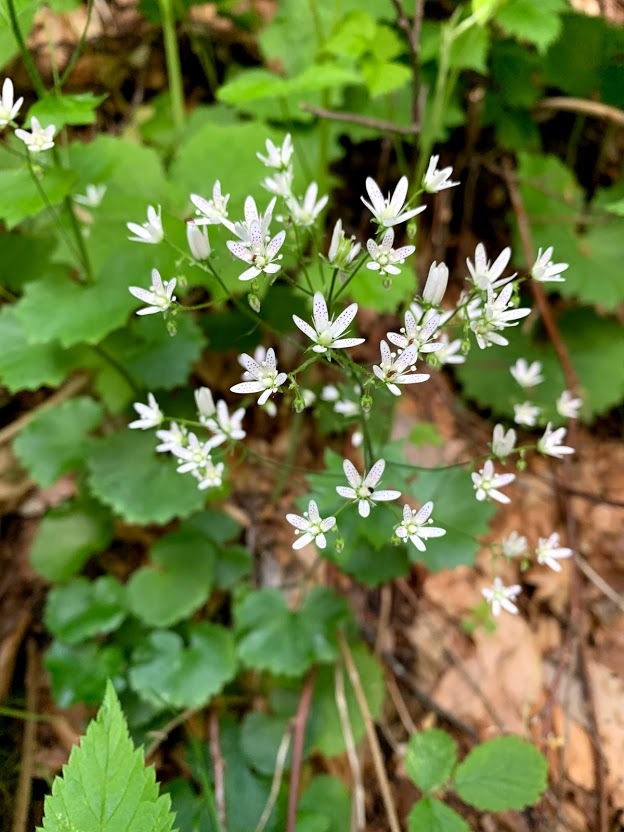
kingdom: Plantae
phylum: Tracheophyta
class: Magnoliopsida
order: Saxifragales
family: Saxifragaceae
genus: Saxifraga
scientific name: Saxifraga rotundifolia
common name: Round-leaved saxifrage
